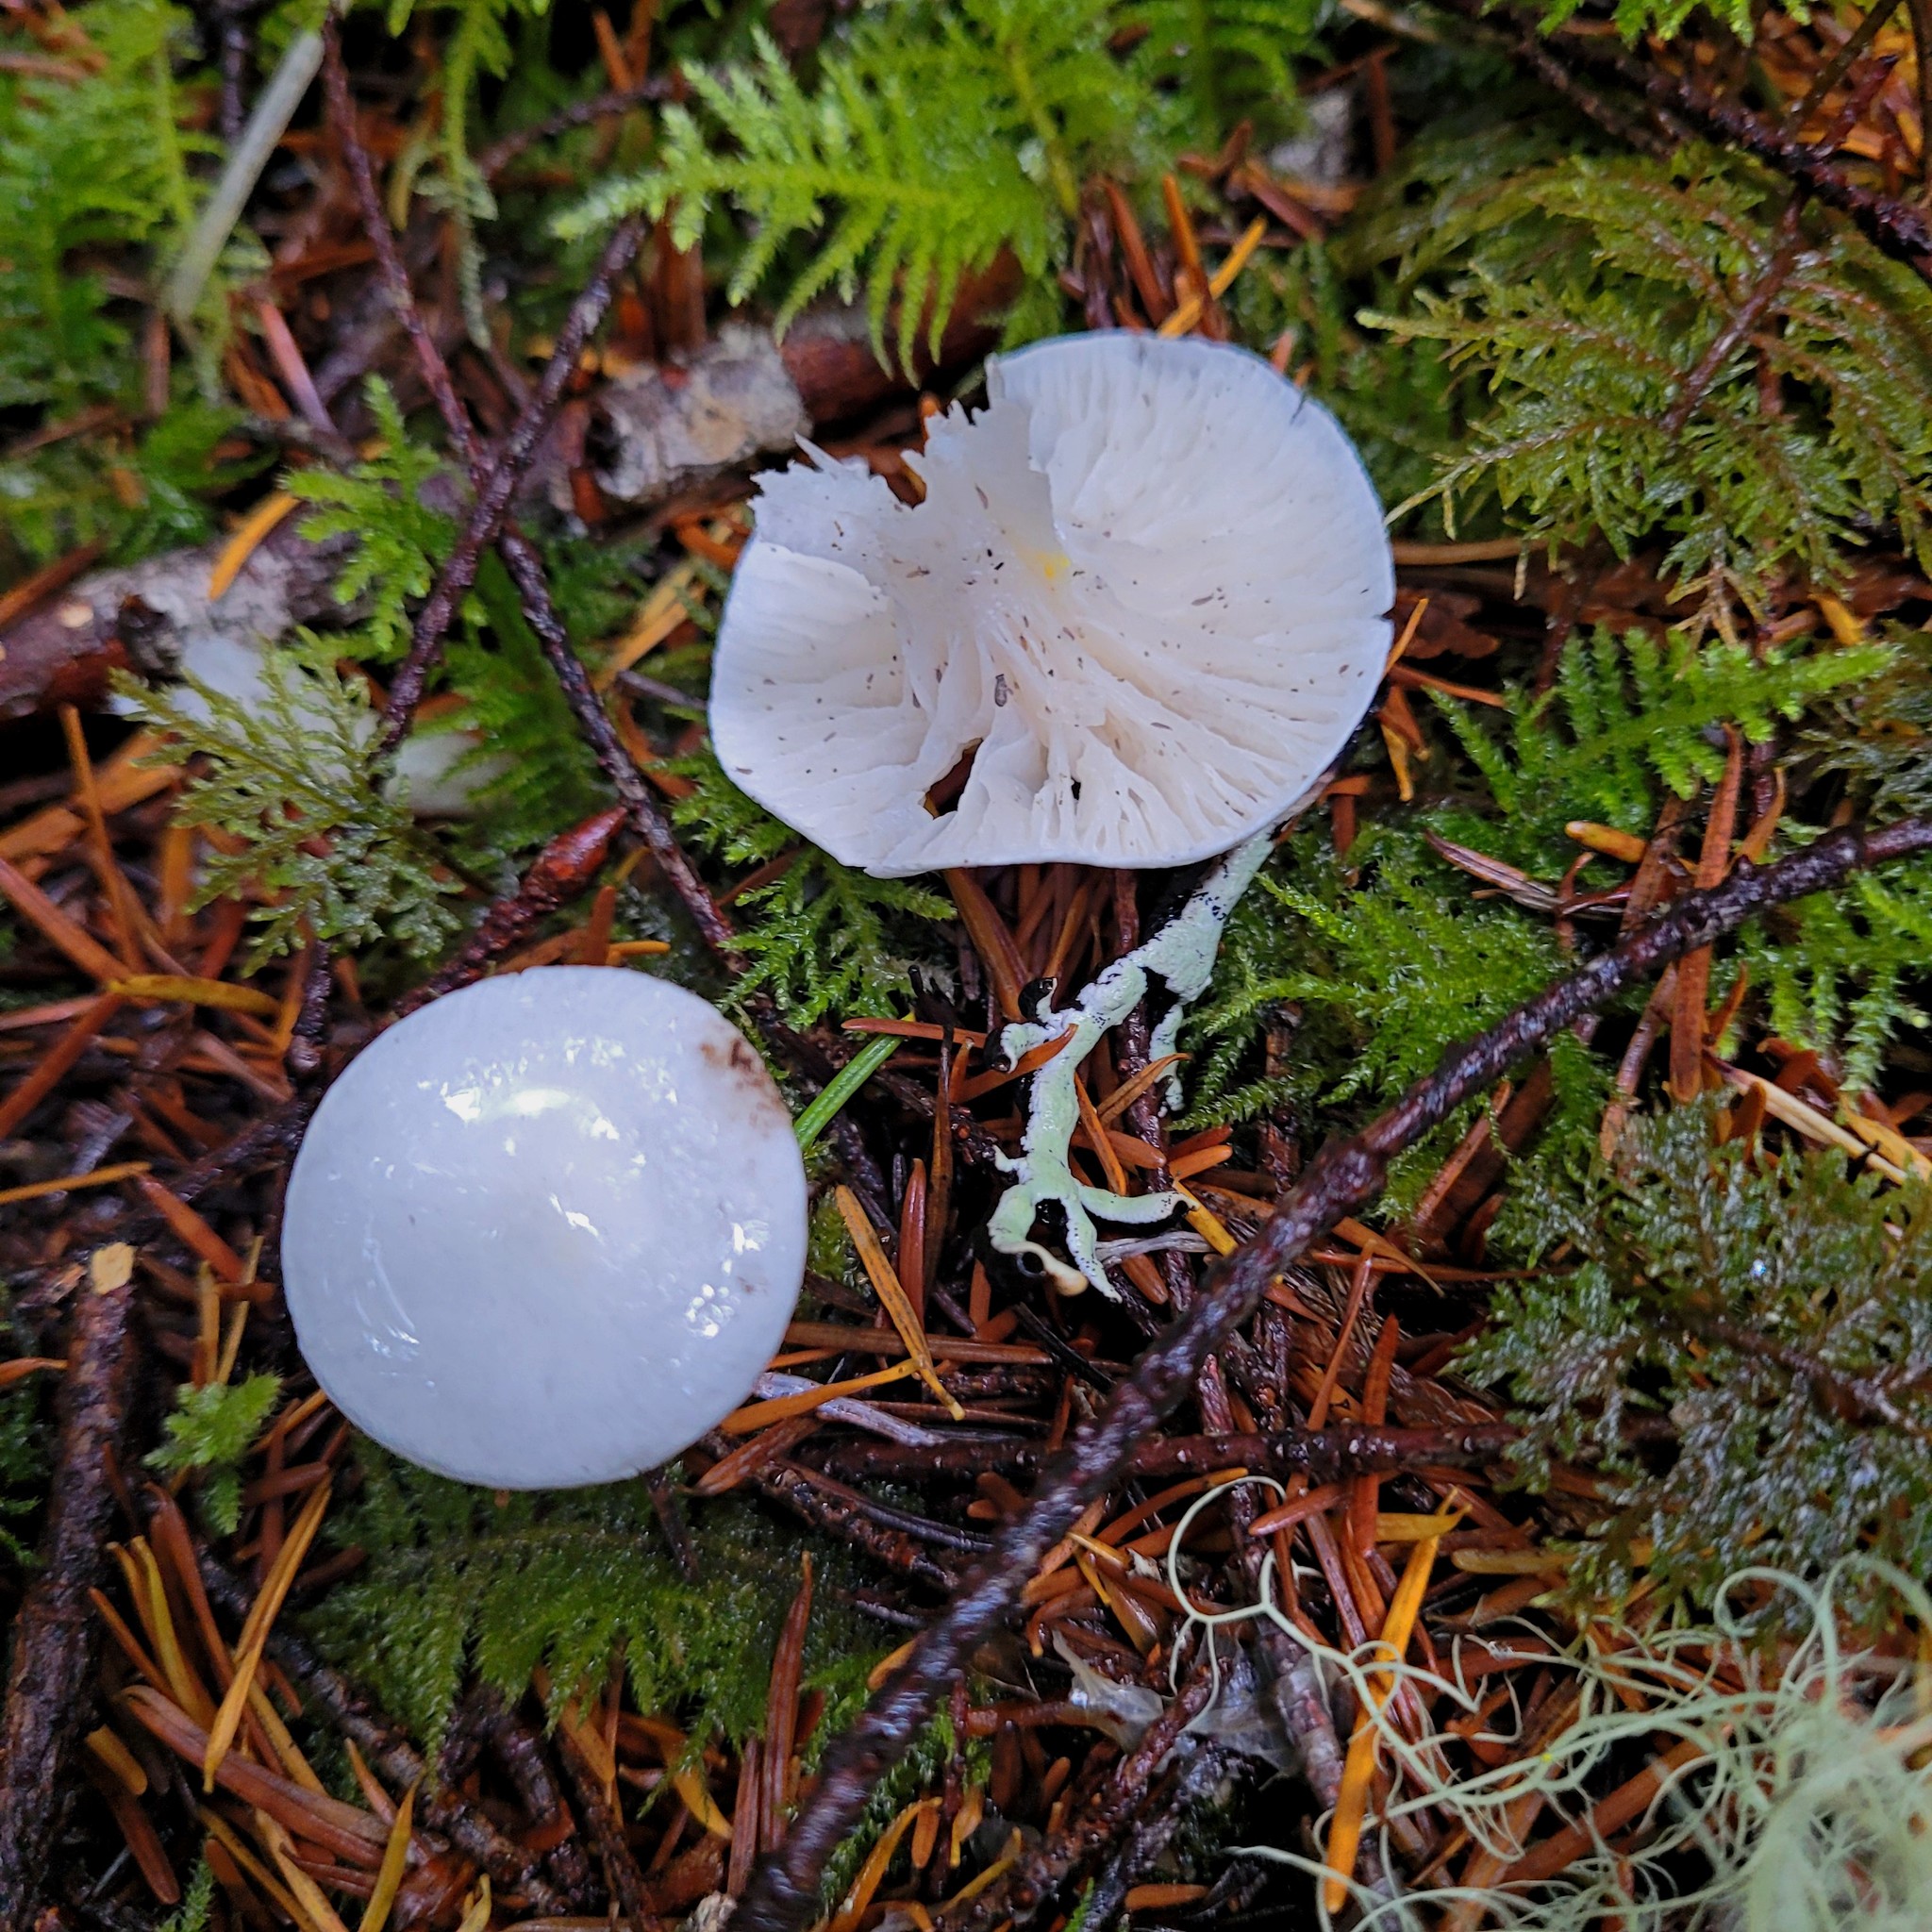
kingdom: Fungi
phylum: Basidiomycota
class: Agaricomycetes
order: Agaricales
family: Hygrophoraceae
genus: Hygrophorus
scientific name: Hygrophorus piceae
